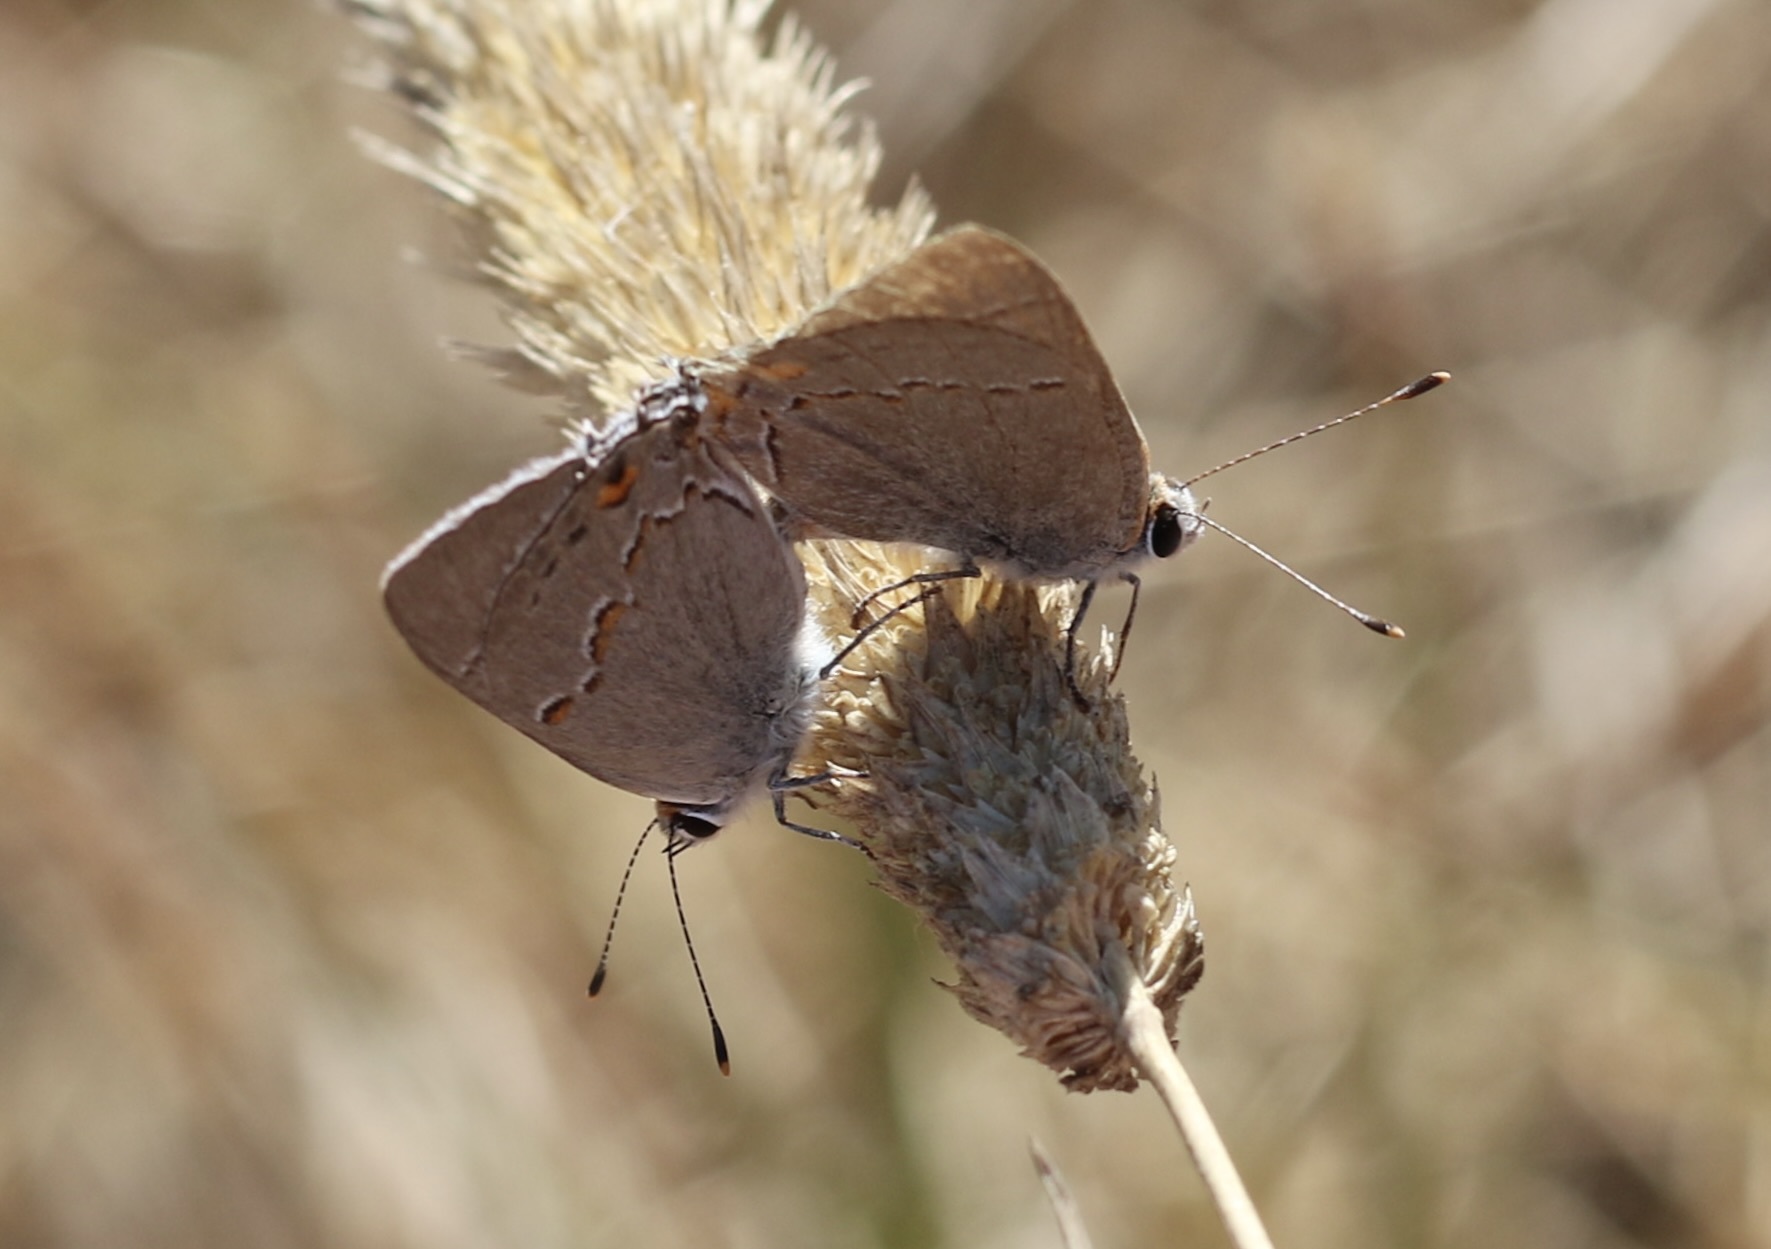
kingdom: Animalia
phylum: Arthropoda
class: Insecta
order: Lepidoptera
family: Lycaenidae
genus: Strymon
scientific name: Strymon melinus
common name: Gray hairstreak
